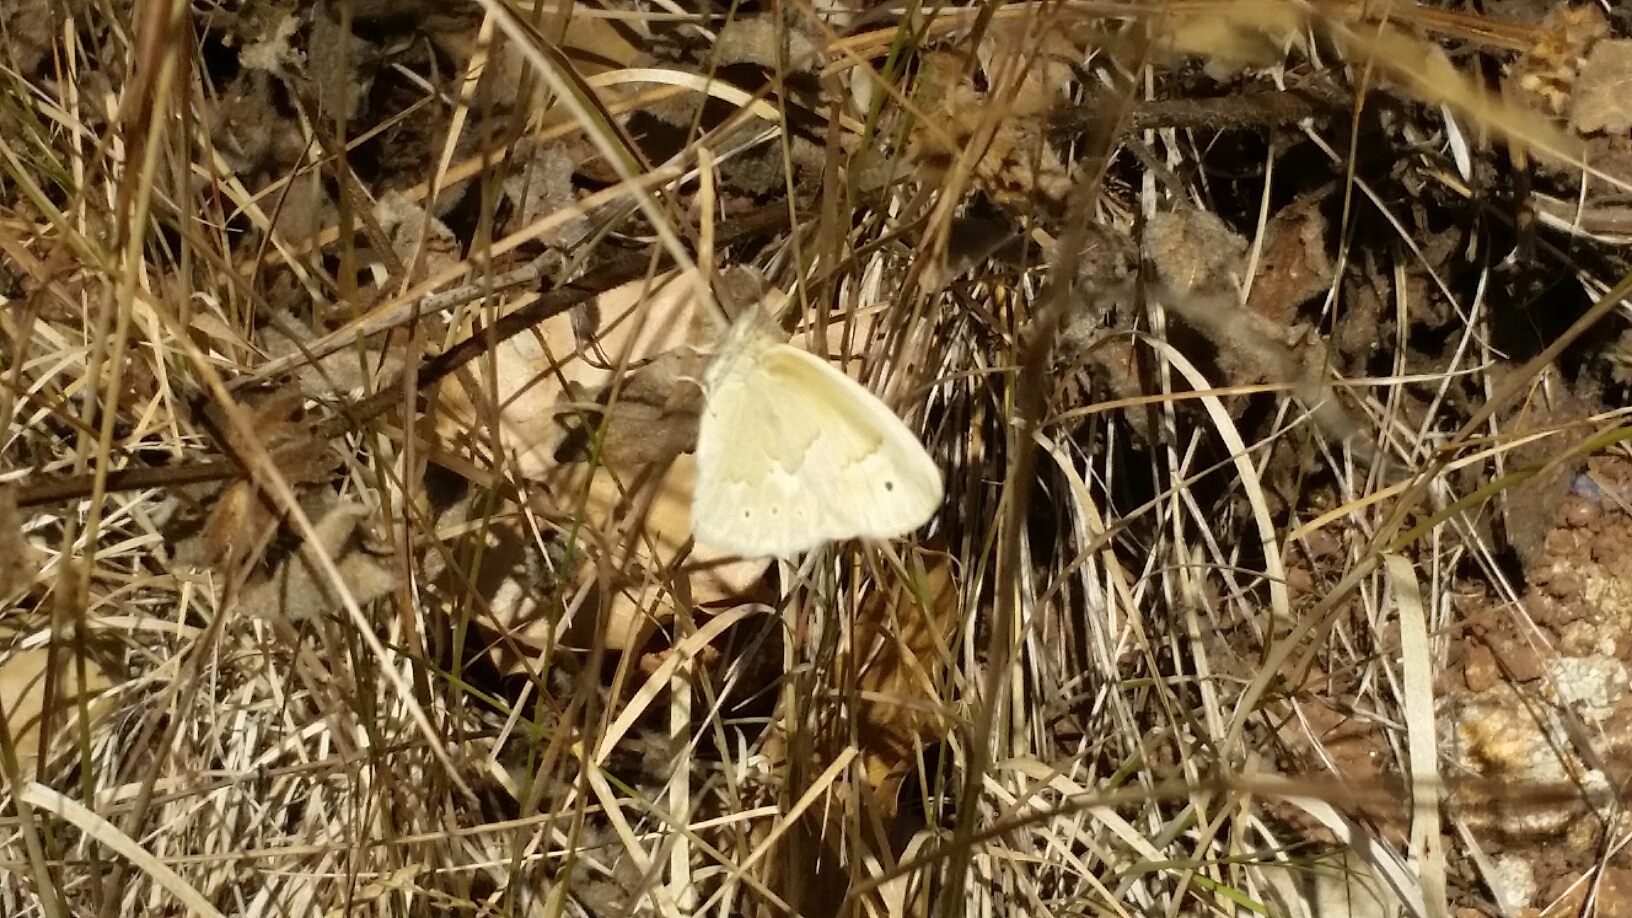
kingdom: Animalia
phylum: Arthropoda
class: Insecta
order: Lepidoptera
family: Nymphalidae
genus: Coenonympha
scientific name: Coenonympha california
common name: Common ringlet
